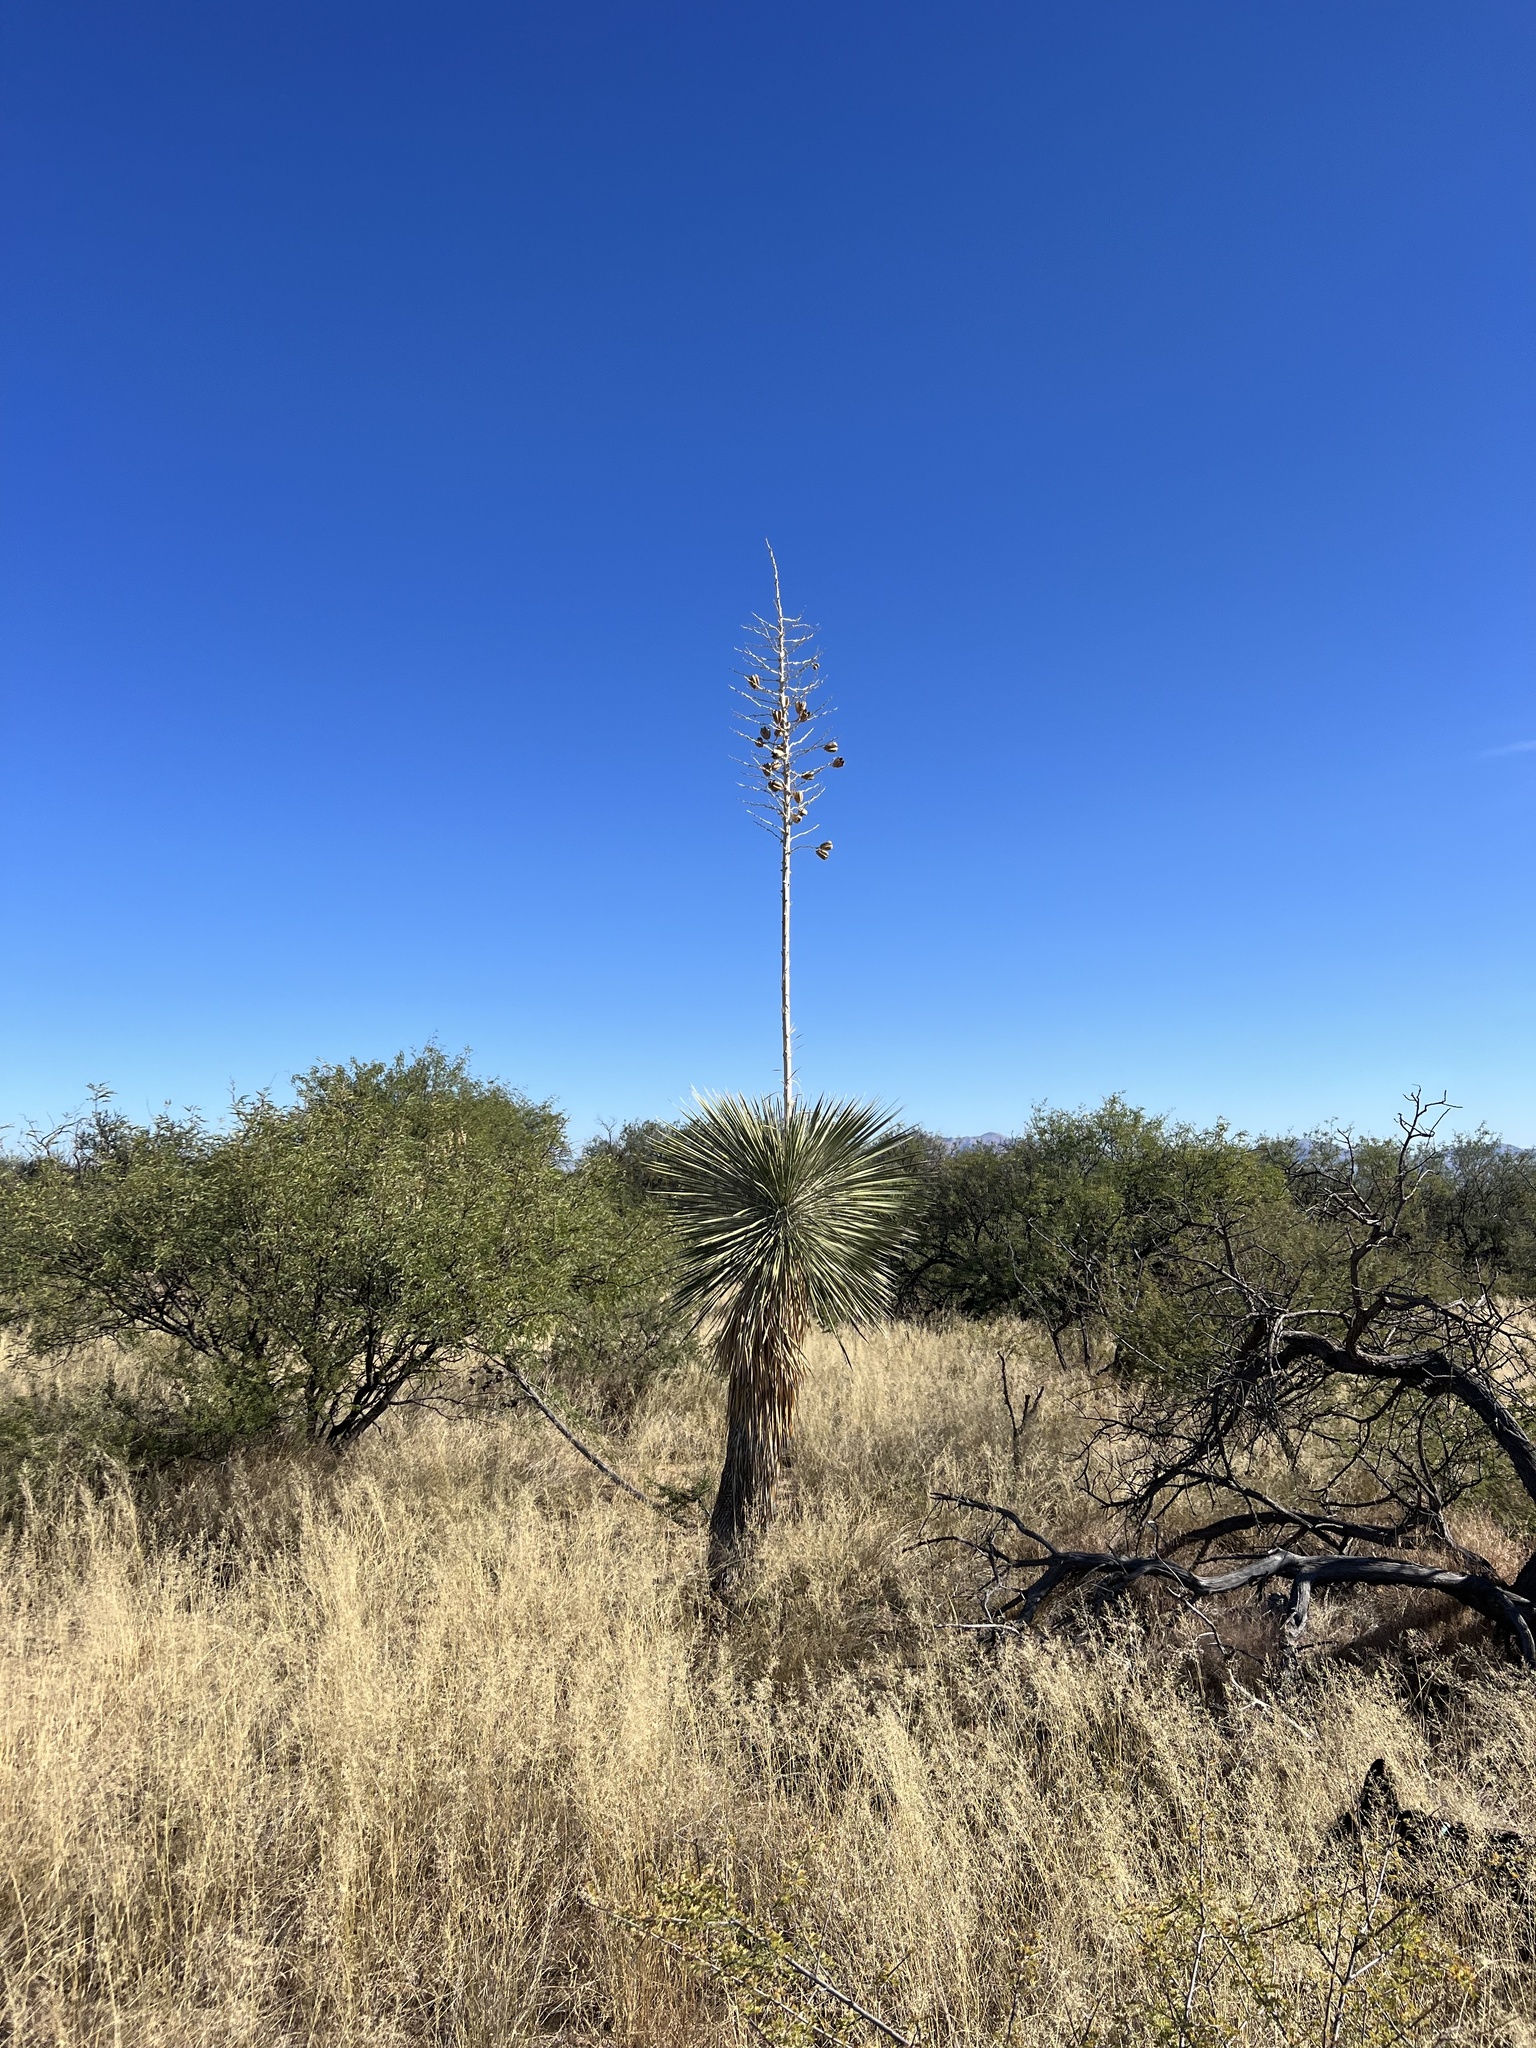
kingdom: Plantae
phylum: Tracheophyta
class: Liliopsida
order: Asparagales
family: Asparagaceae
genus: Yucca
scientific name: Yucca elata
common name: Palmella
